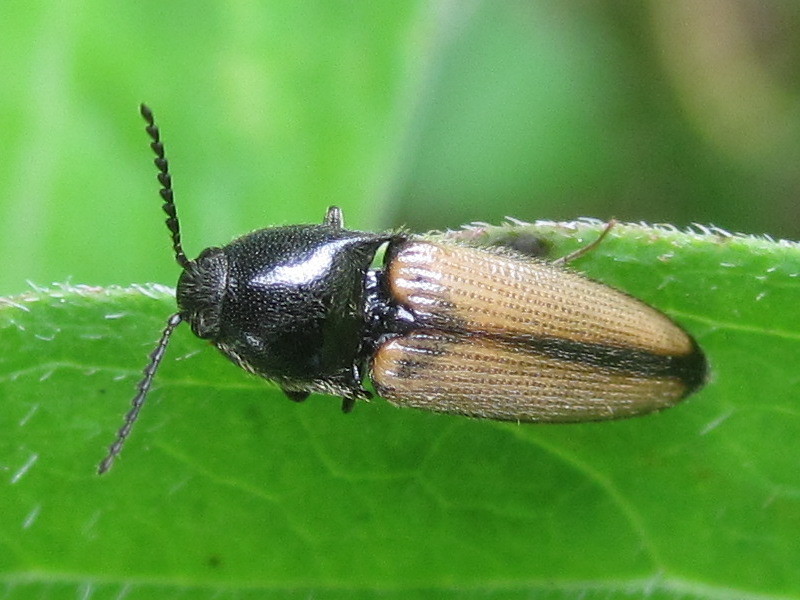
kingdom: Animalia
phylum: Arthropoda
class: Insecta
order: Coleoptera
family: Elateridae
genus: Ampedus
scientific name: Ampedus militaris
